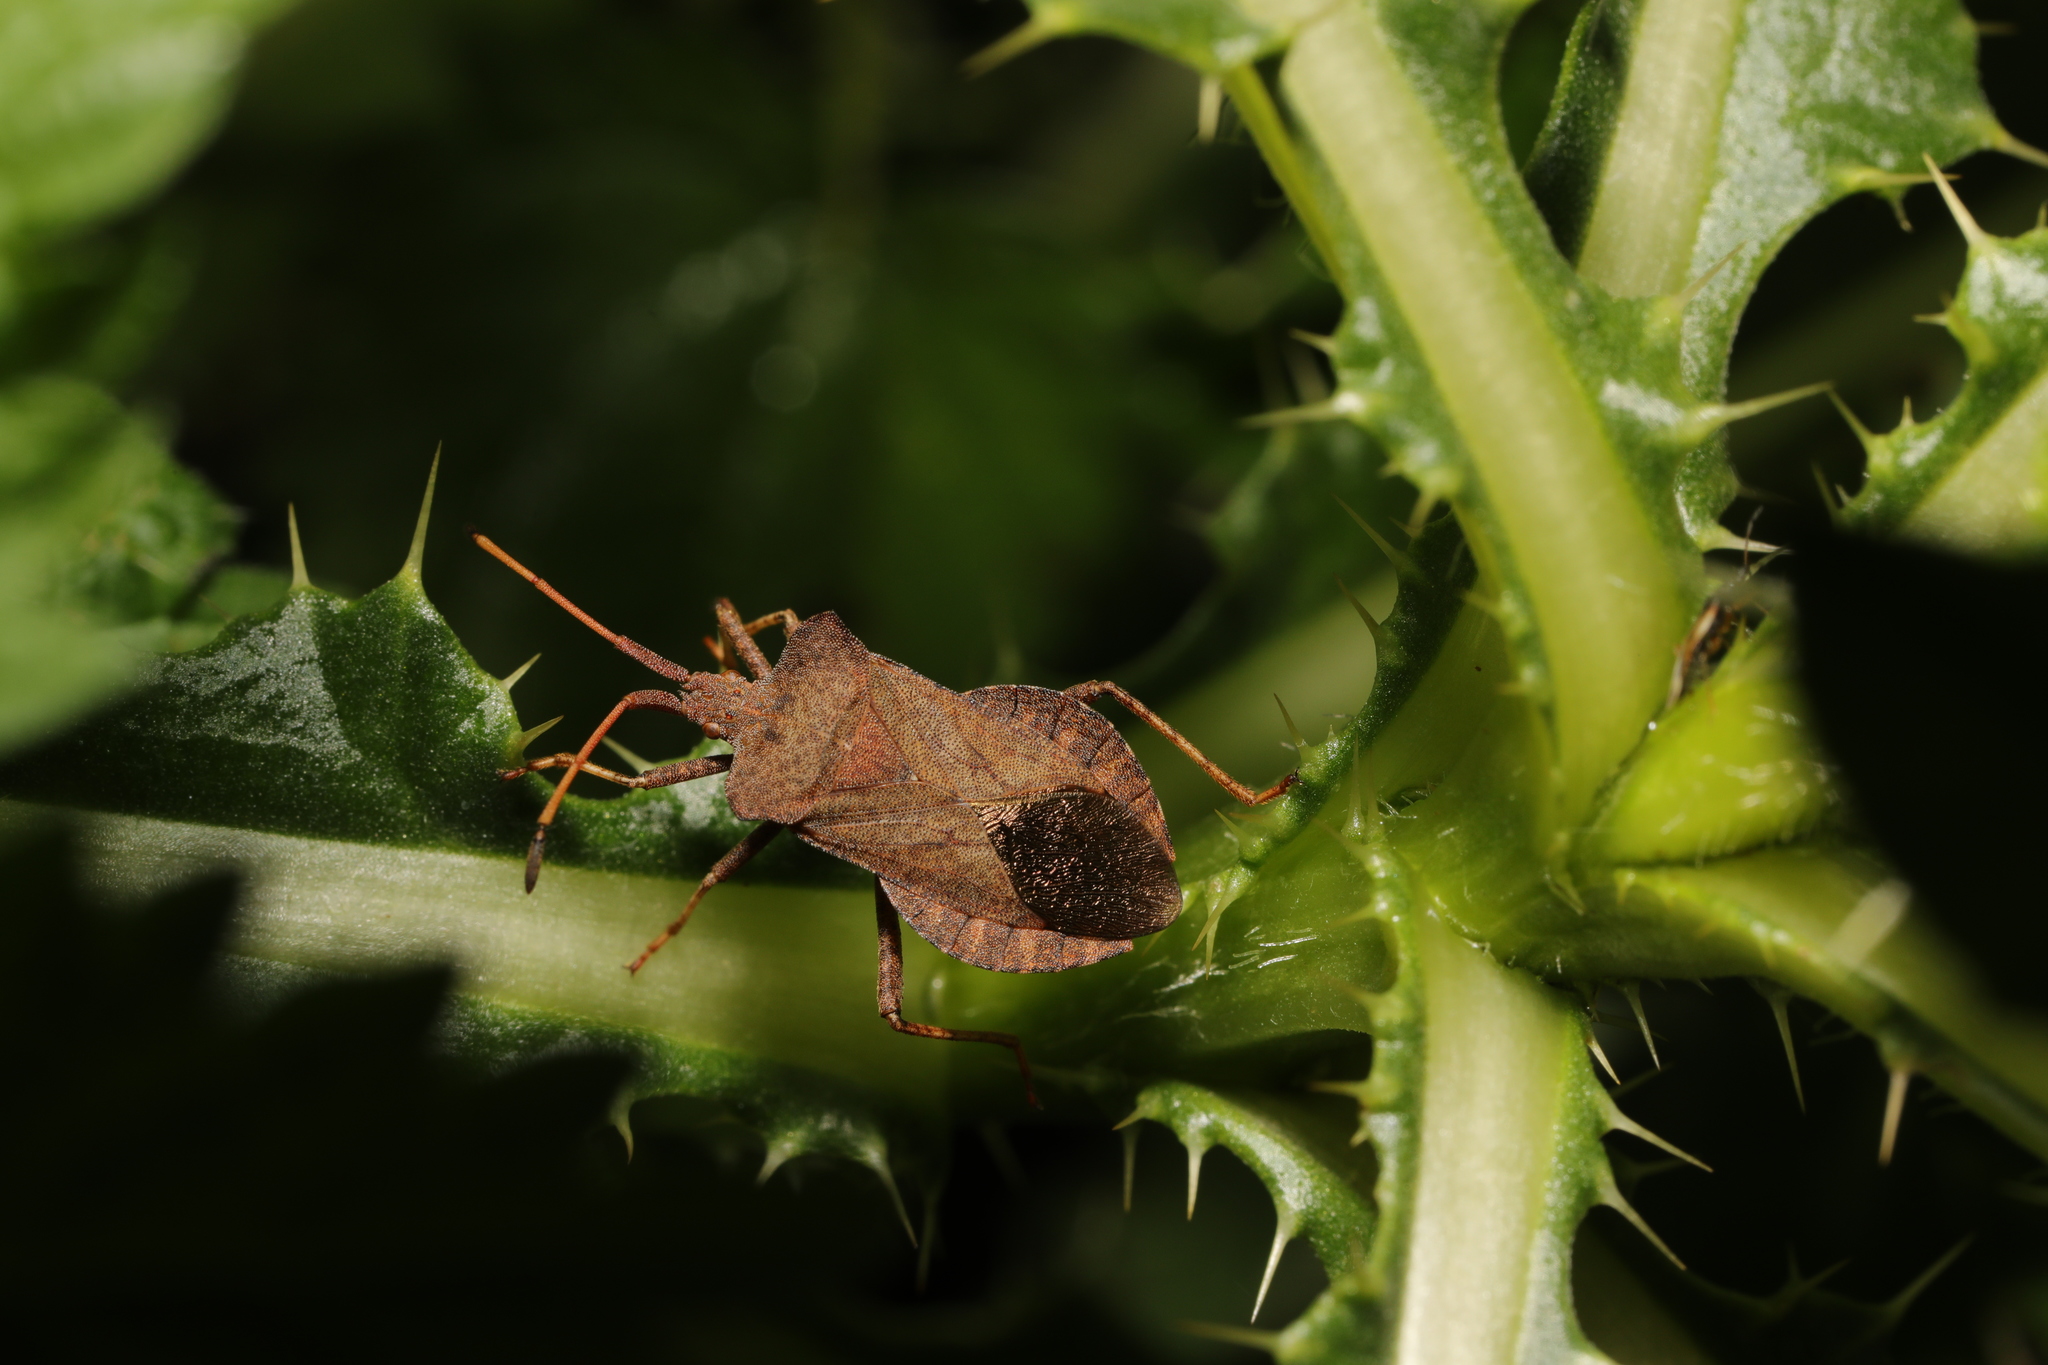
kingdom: Animalia
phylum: Arthropoda
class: Insecta
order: Hemiptera
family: Coreidae
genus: Coreus
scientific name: Coreus marginatus
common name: Dock bug
